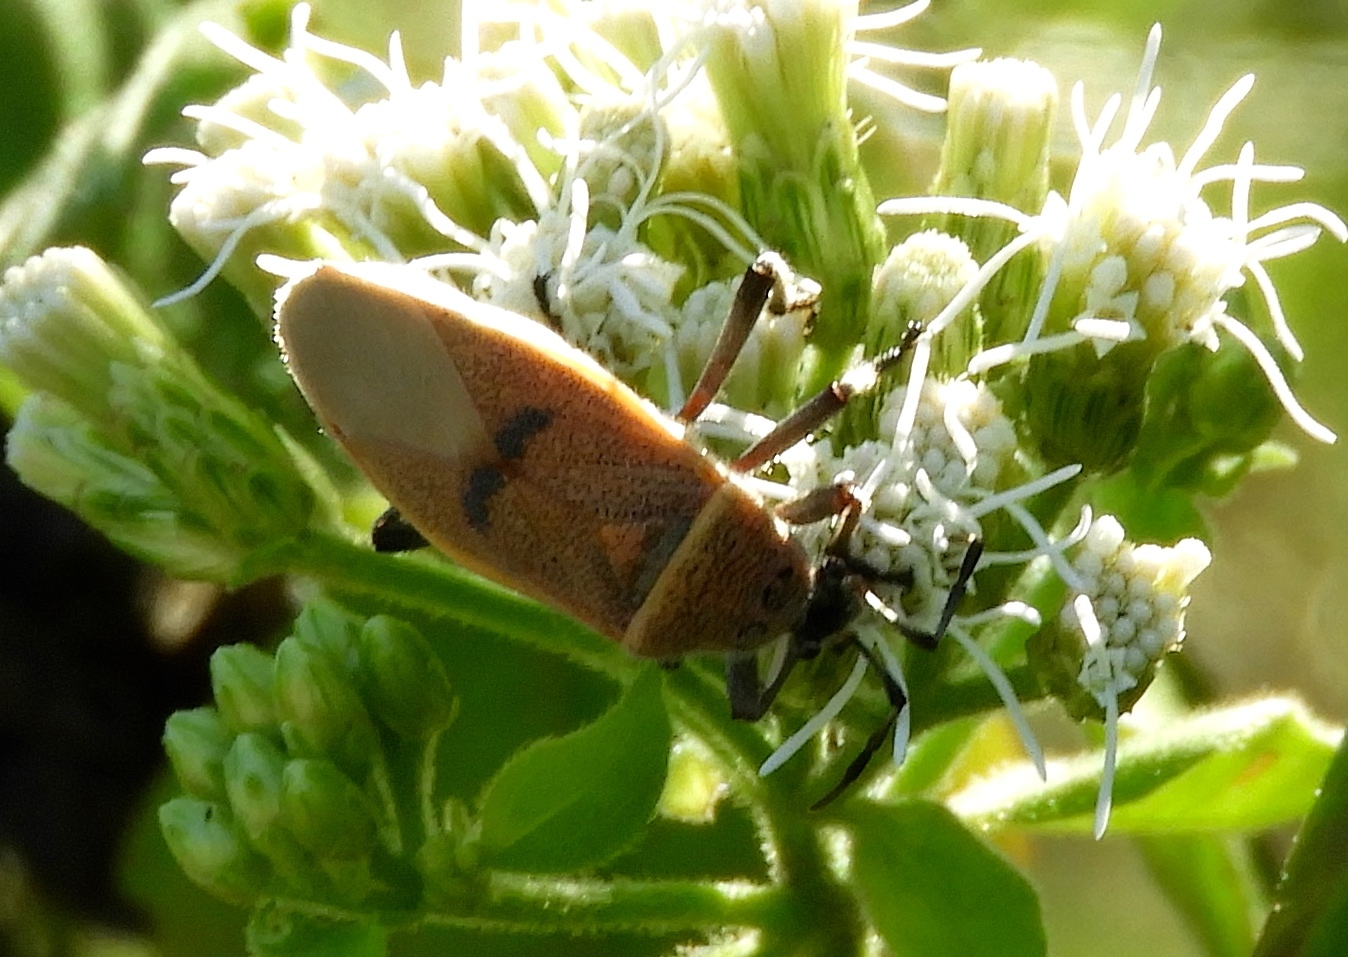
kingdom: Animalia
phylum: Arthropoda
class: Insecta
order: Hemiptera
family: Largidae
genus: Largus
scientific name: Largus
